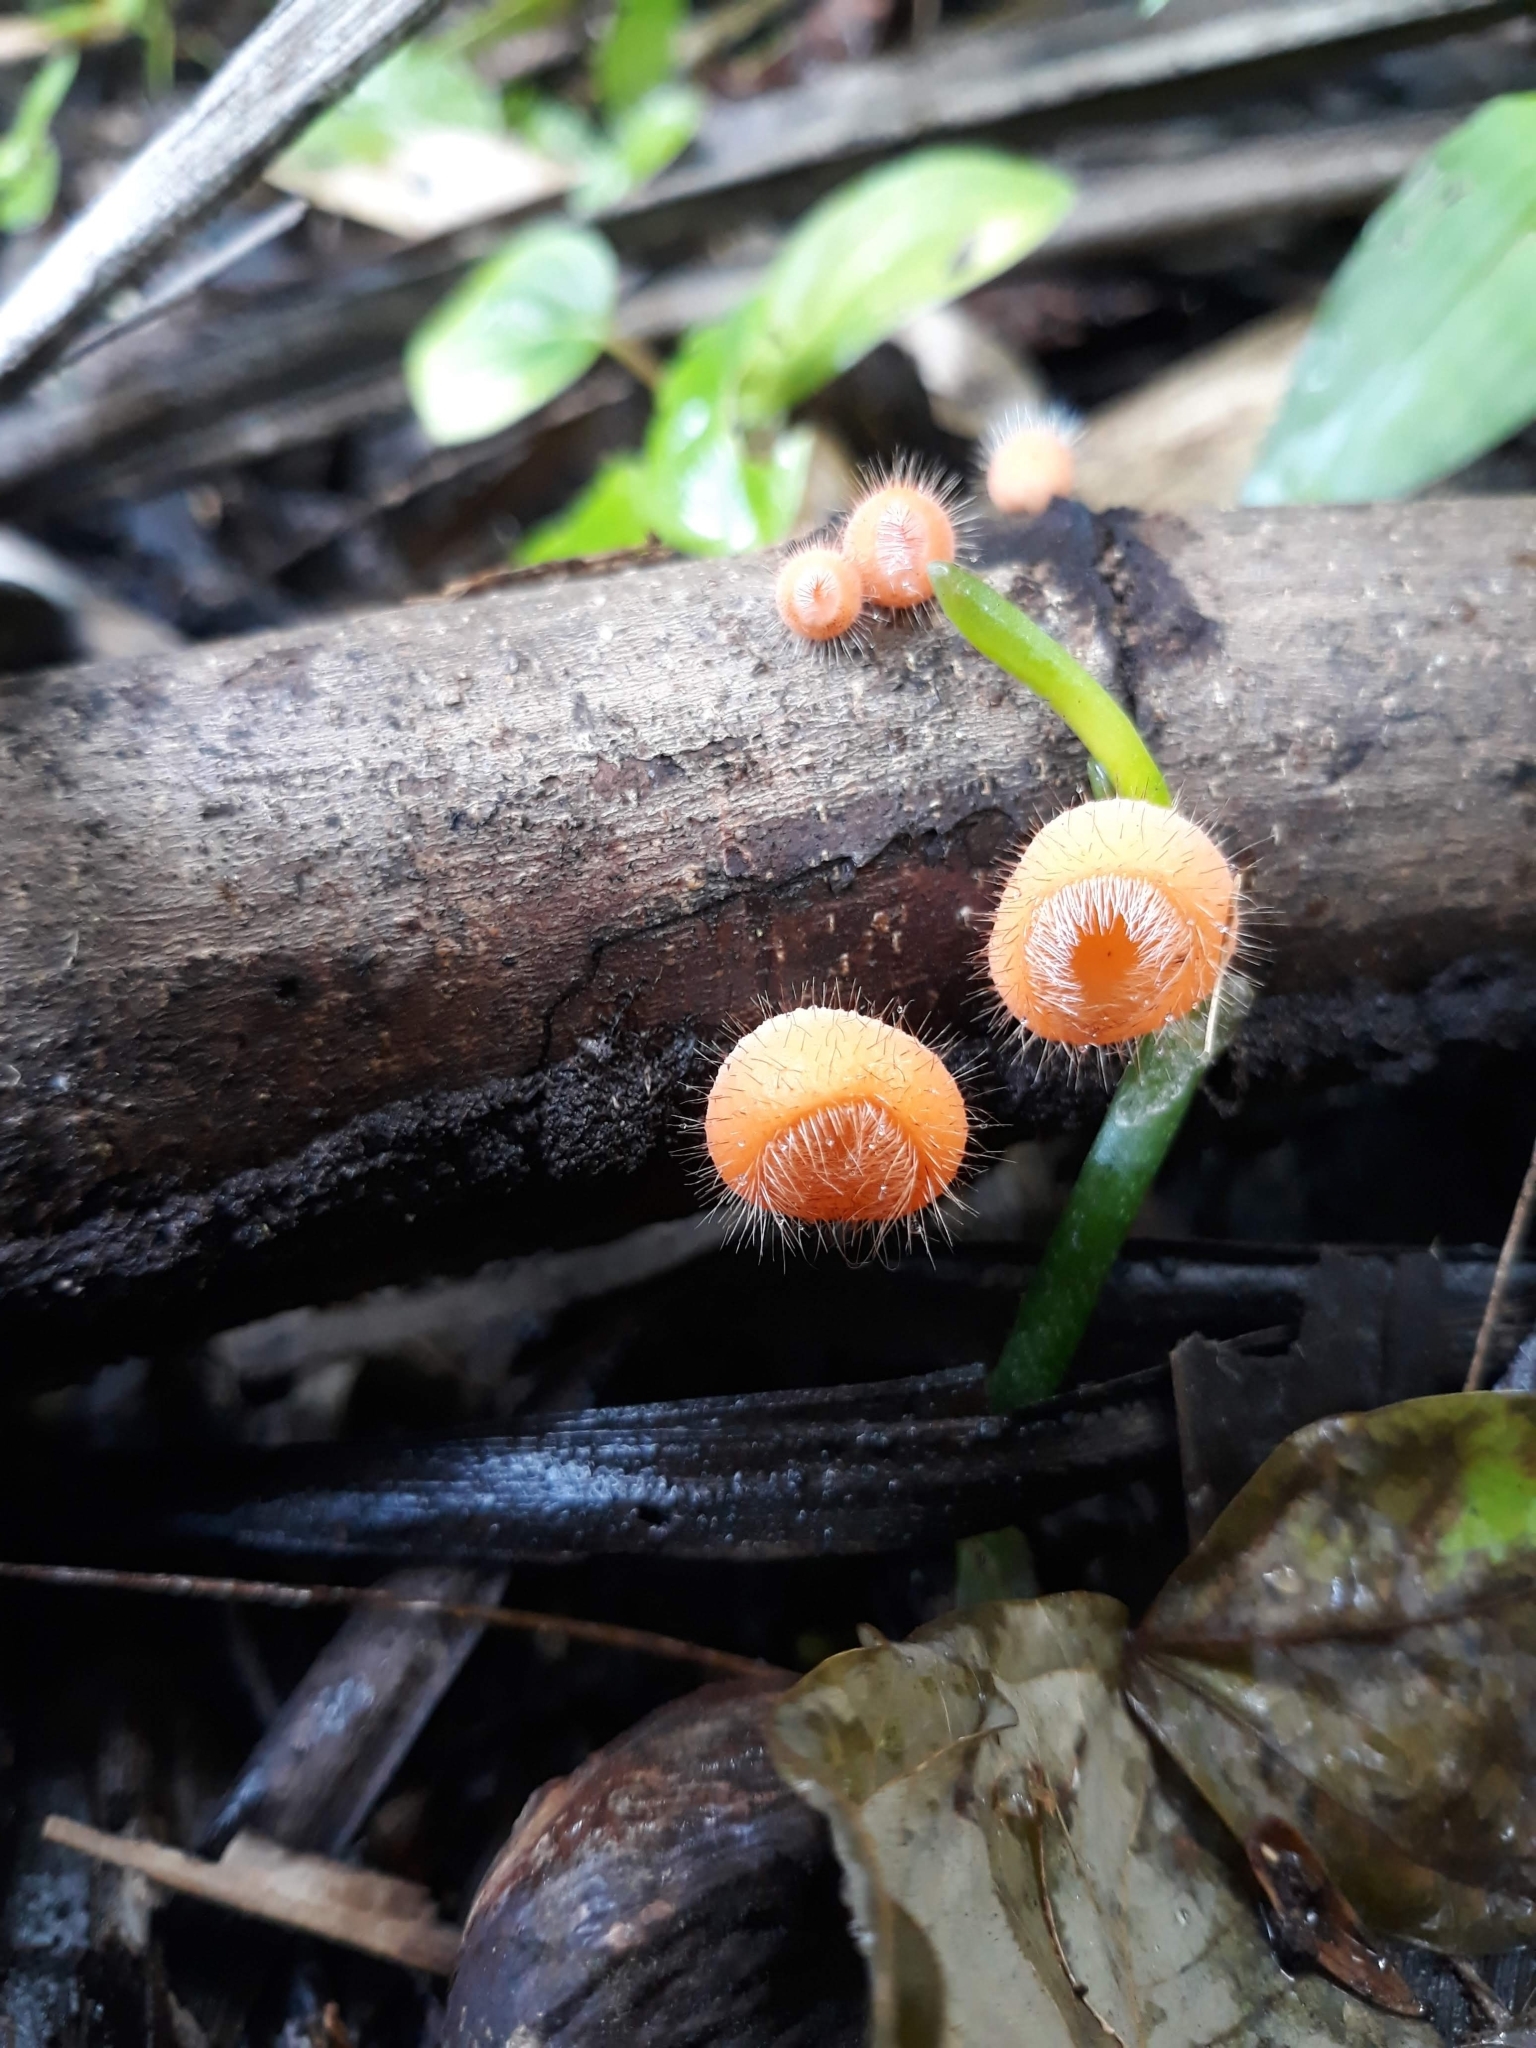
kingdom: Fungi
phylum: Ascomycota
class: Pezizomycetes
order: Pezizales
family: Sarcoscyphaceae
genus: Cookeina
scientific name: Cookeina tricholoma
